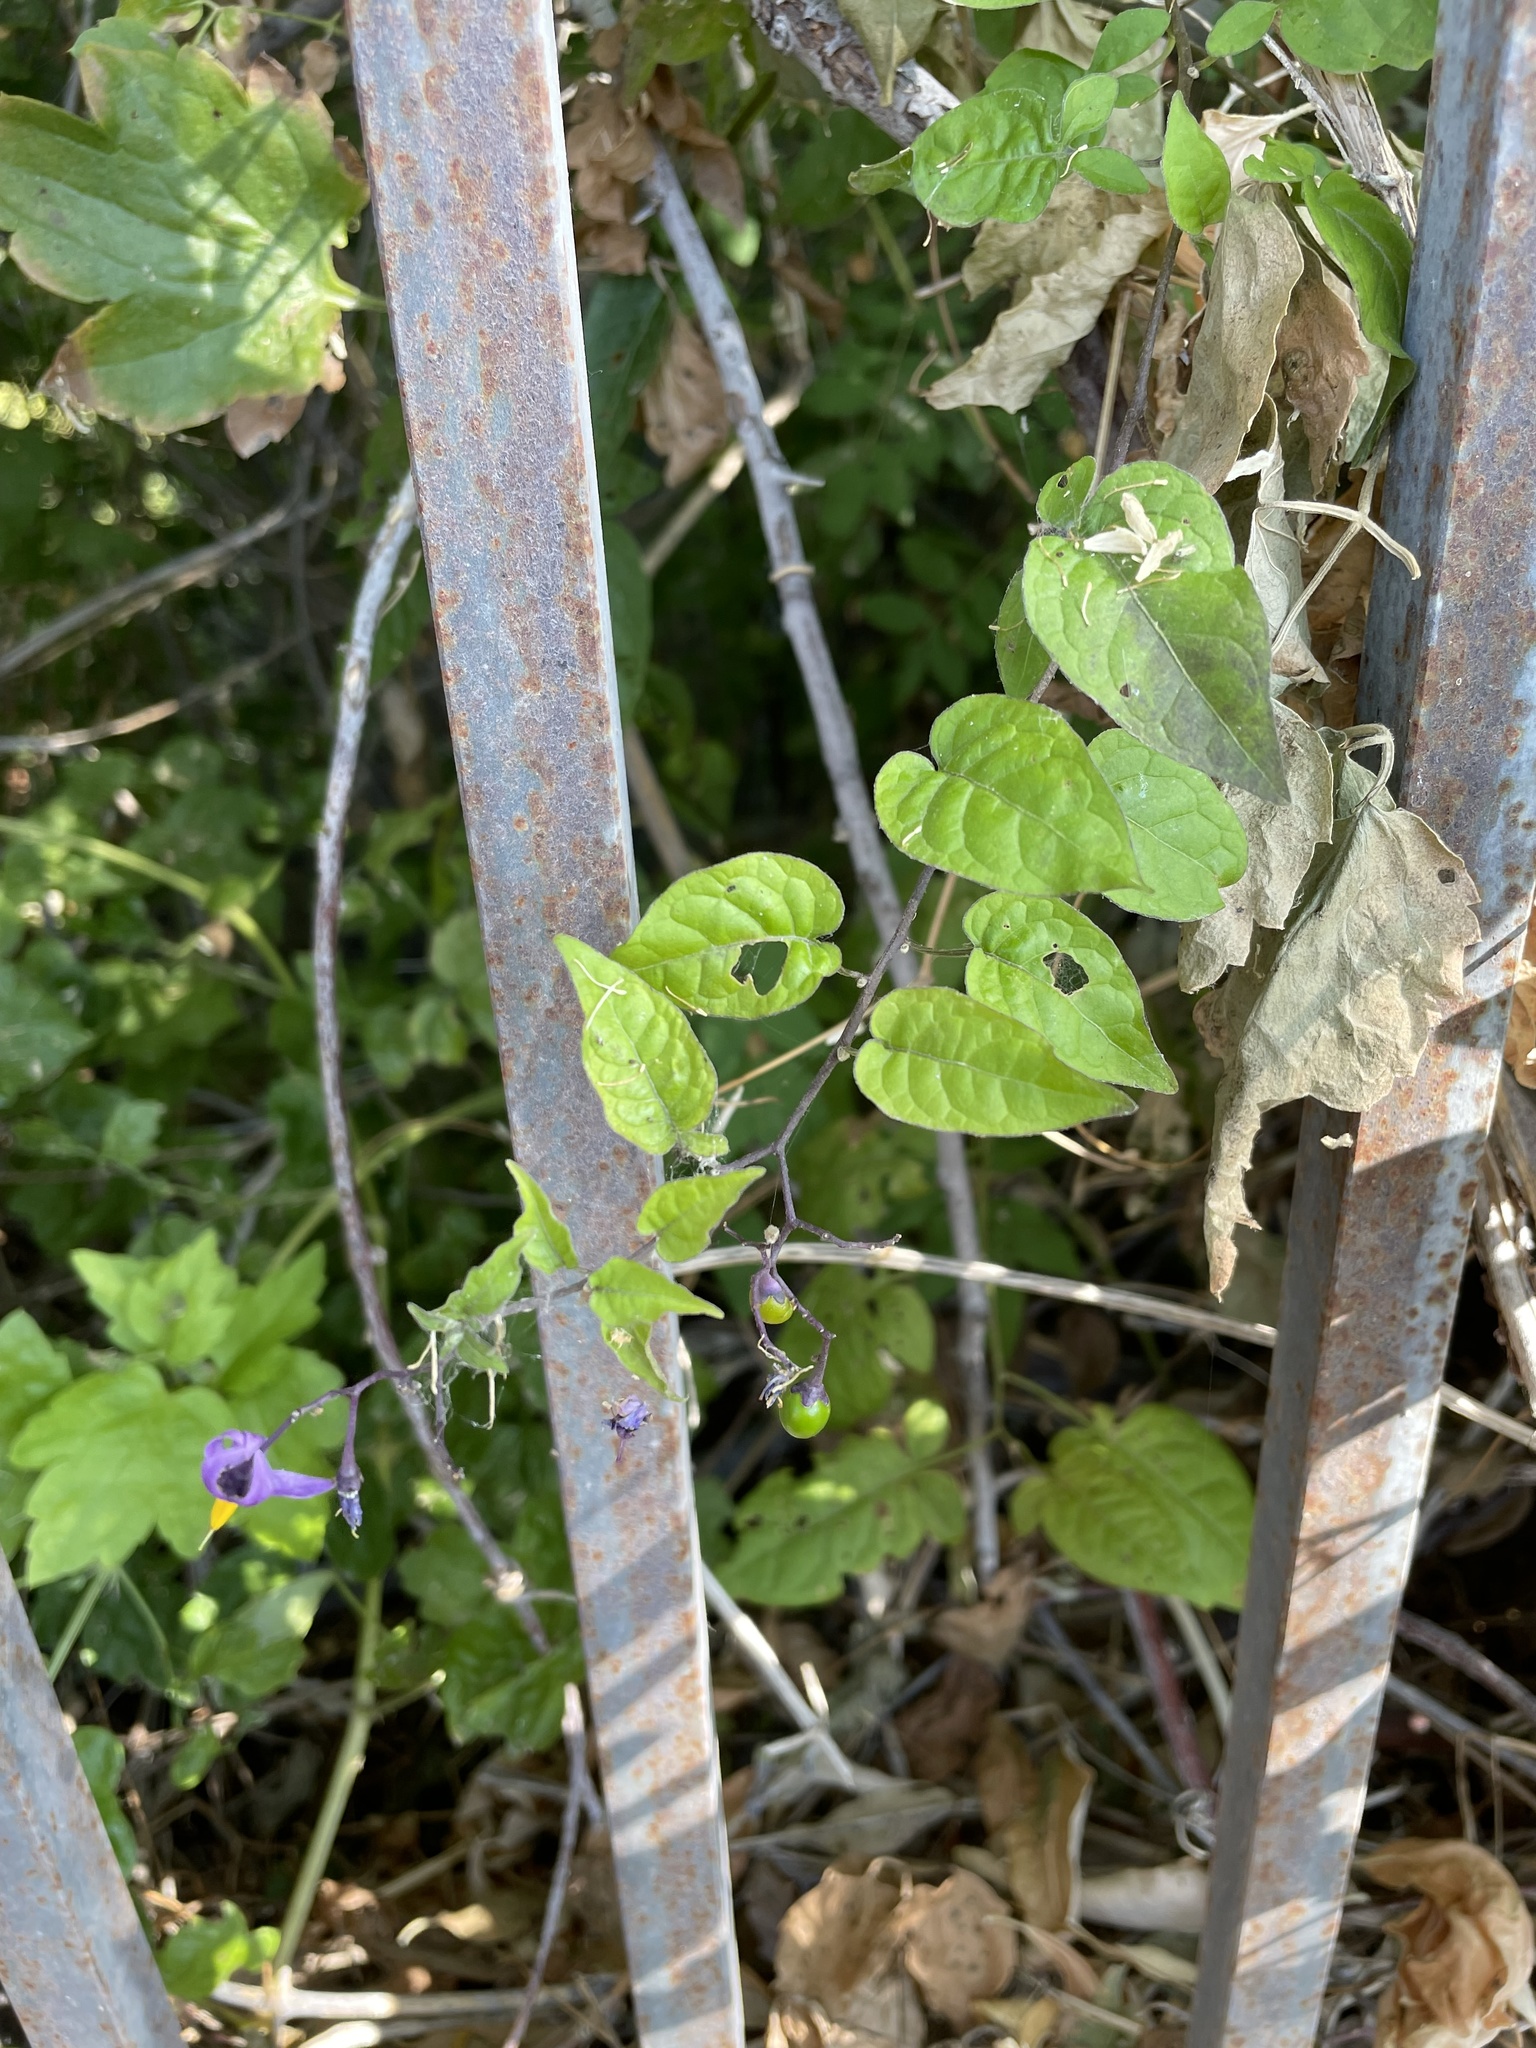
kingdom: Plantae
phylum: Tracheophyta
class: Magnoliopsida
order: Solanales
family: Solanaceae
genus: Solanum
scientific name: Solanum dulcamara
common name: Climbing nightshade
